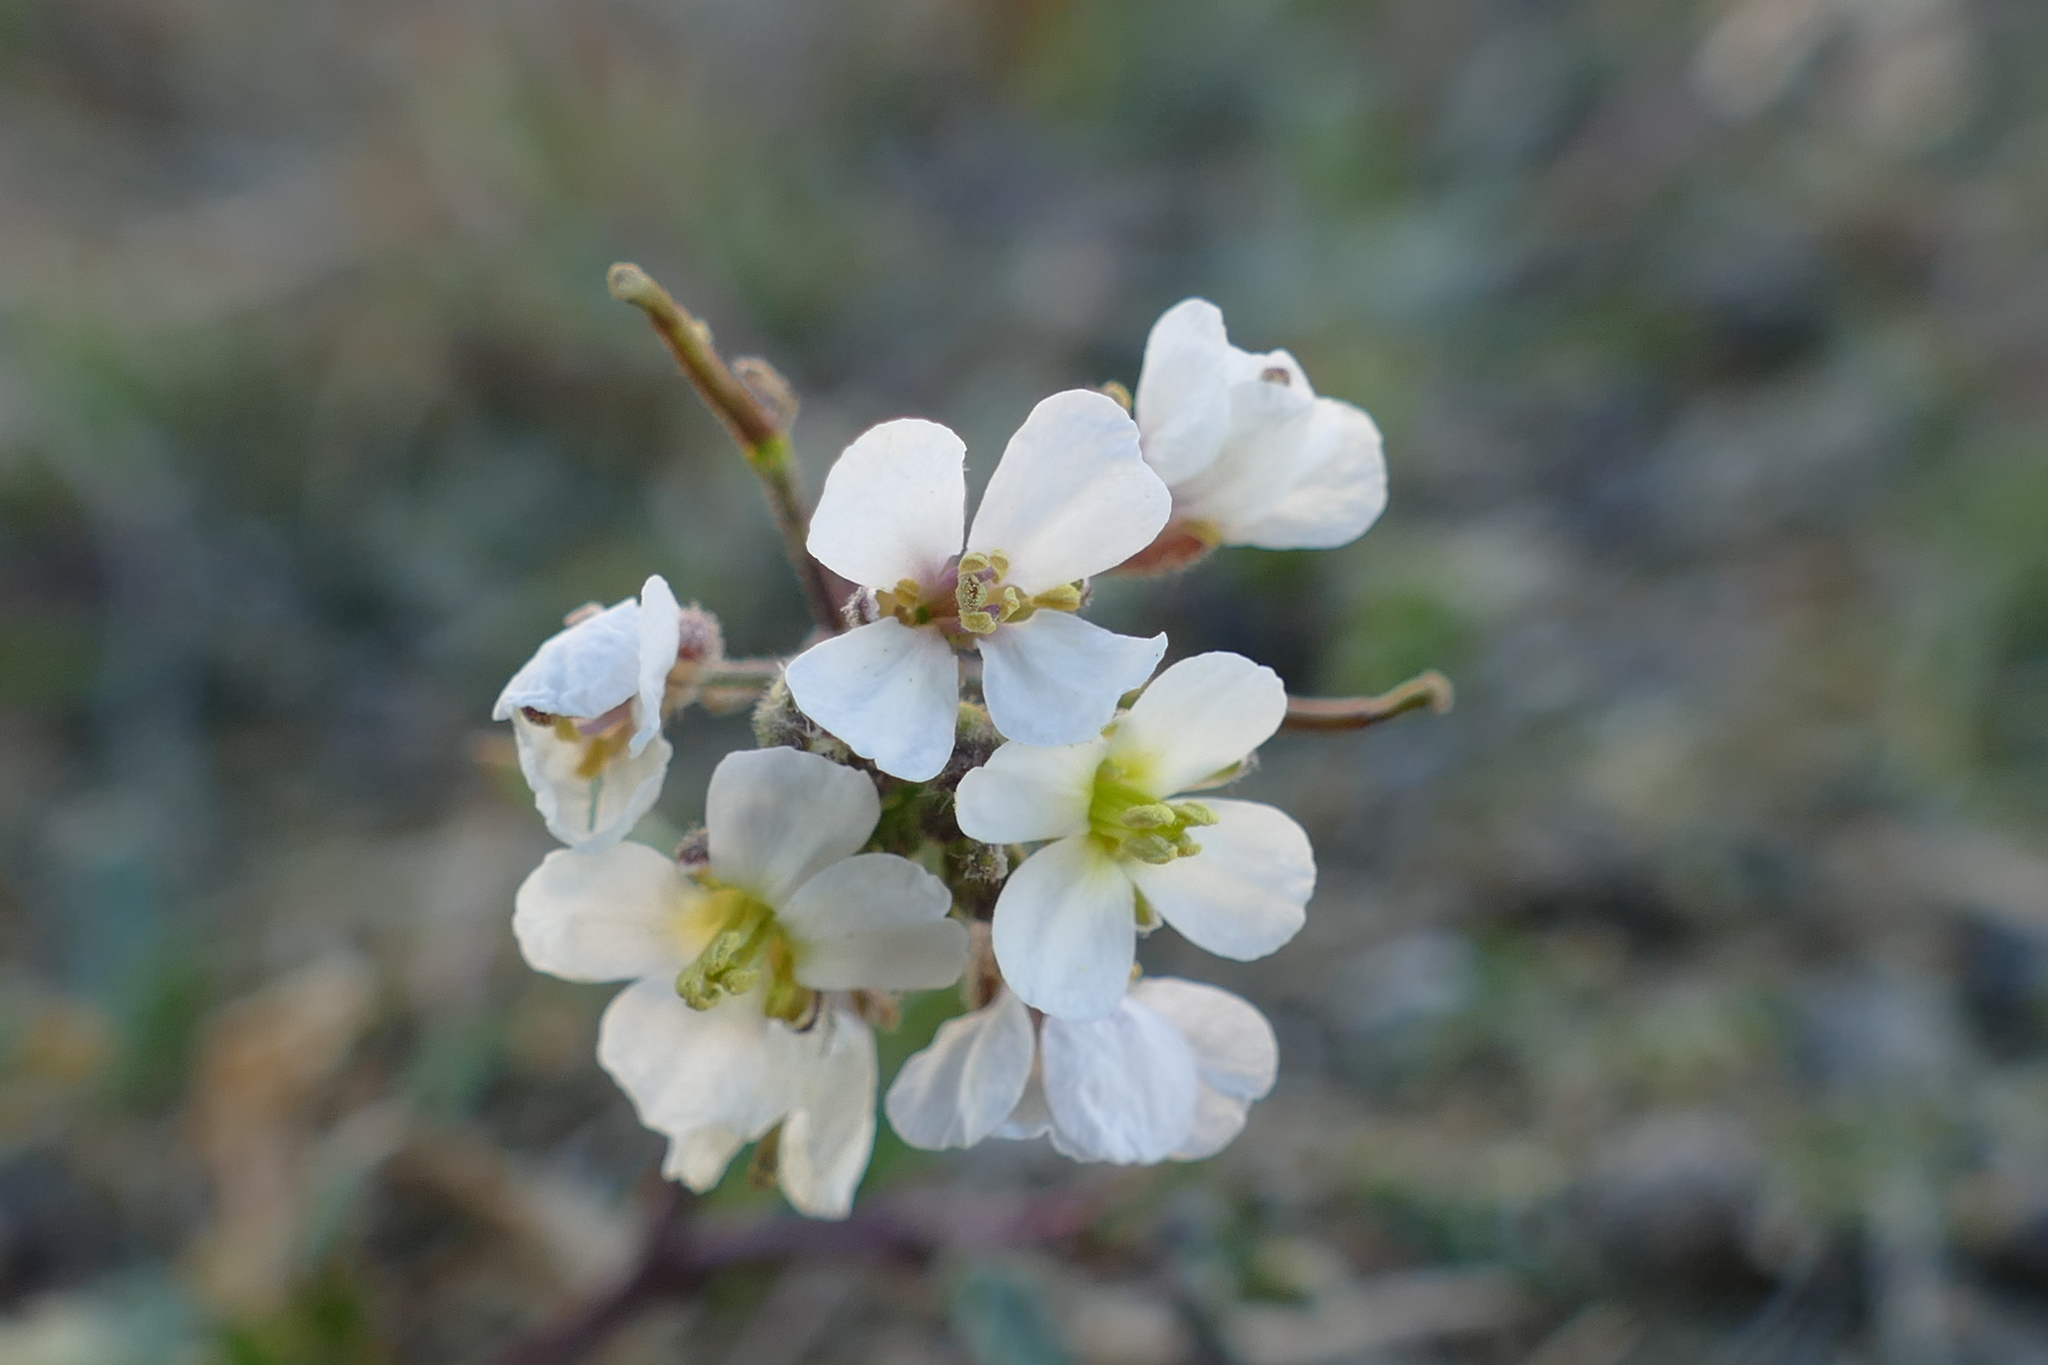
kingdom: Plantae
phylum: Tracheophyta
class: Magnoliopsida
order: Brassicales
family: Brassicaceae
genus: Diplotaxis
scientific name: Diplotaxis erucoides
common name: White rocket
